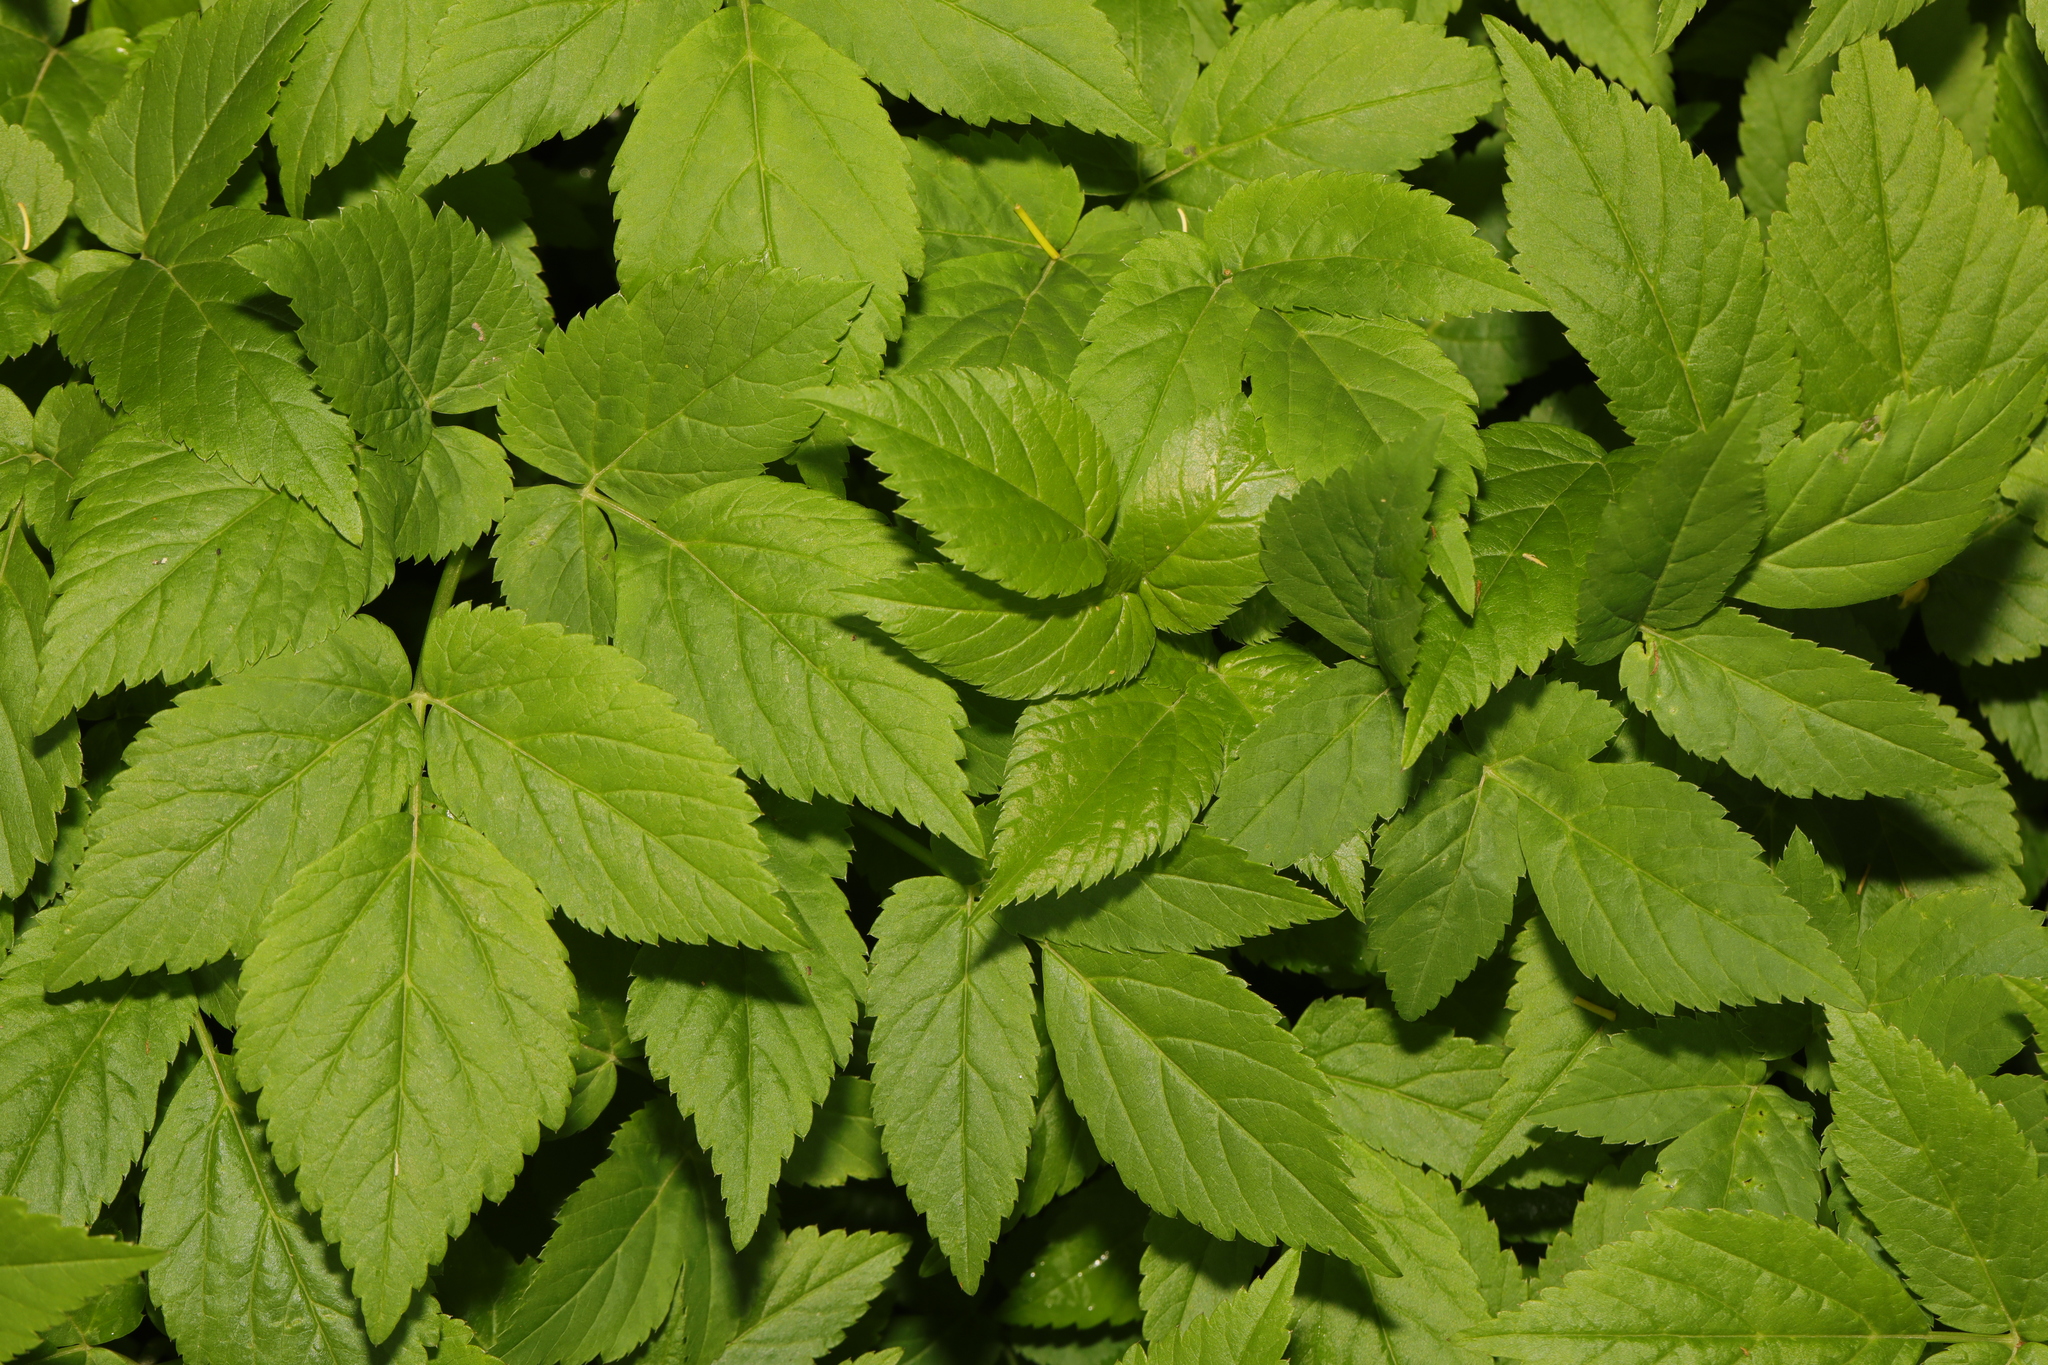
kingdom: Plantae
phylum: Tracheophyta
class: Magnoliopsida
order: Apiales
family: Apiaceae
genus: Aegopodium
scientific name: Aegopodium podagraria
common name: Ground-elder
